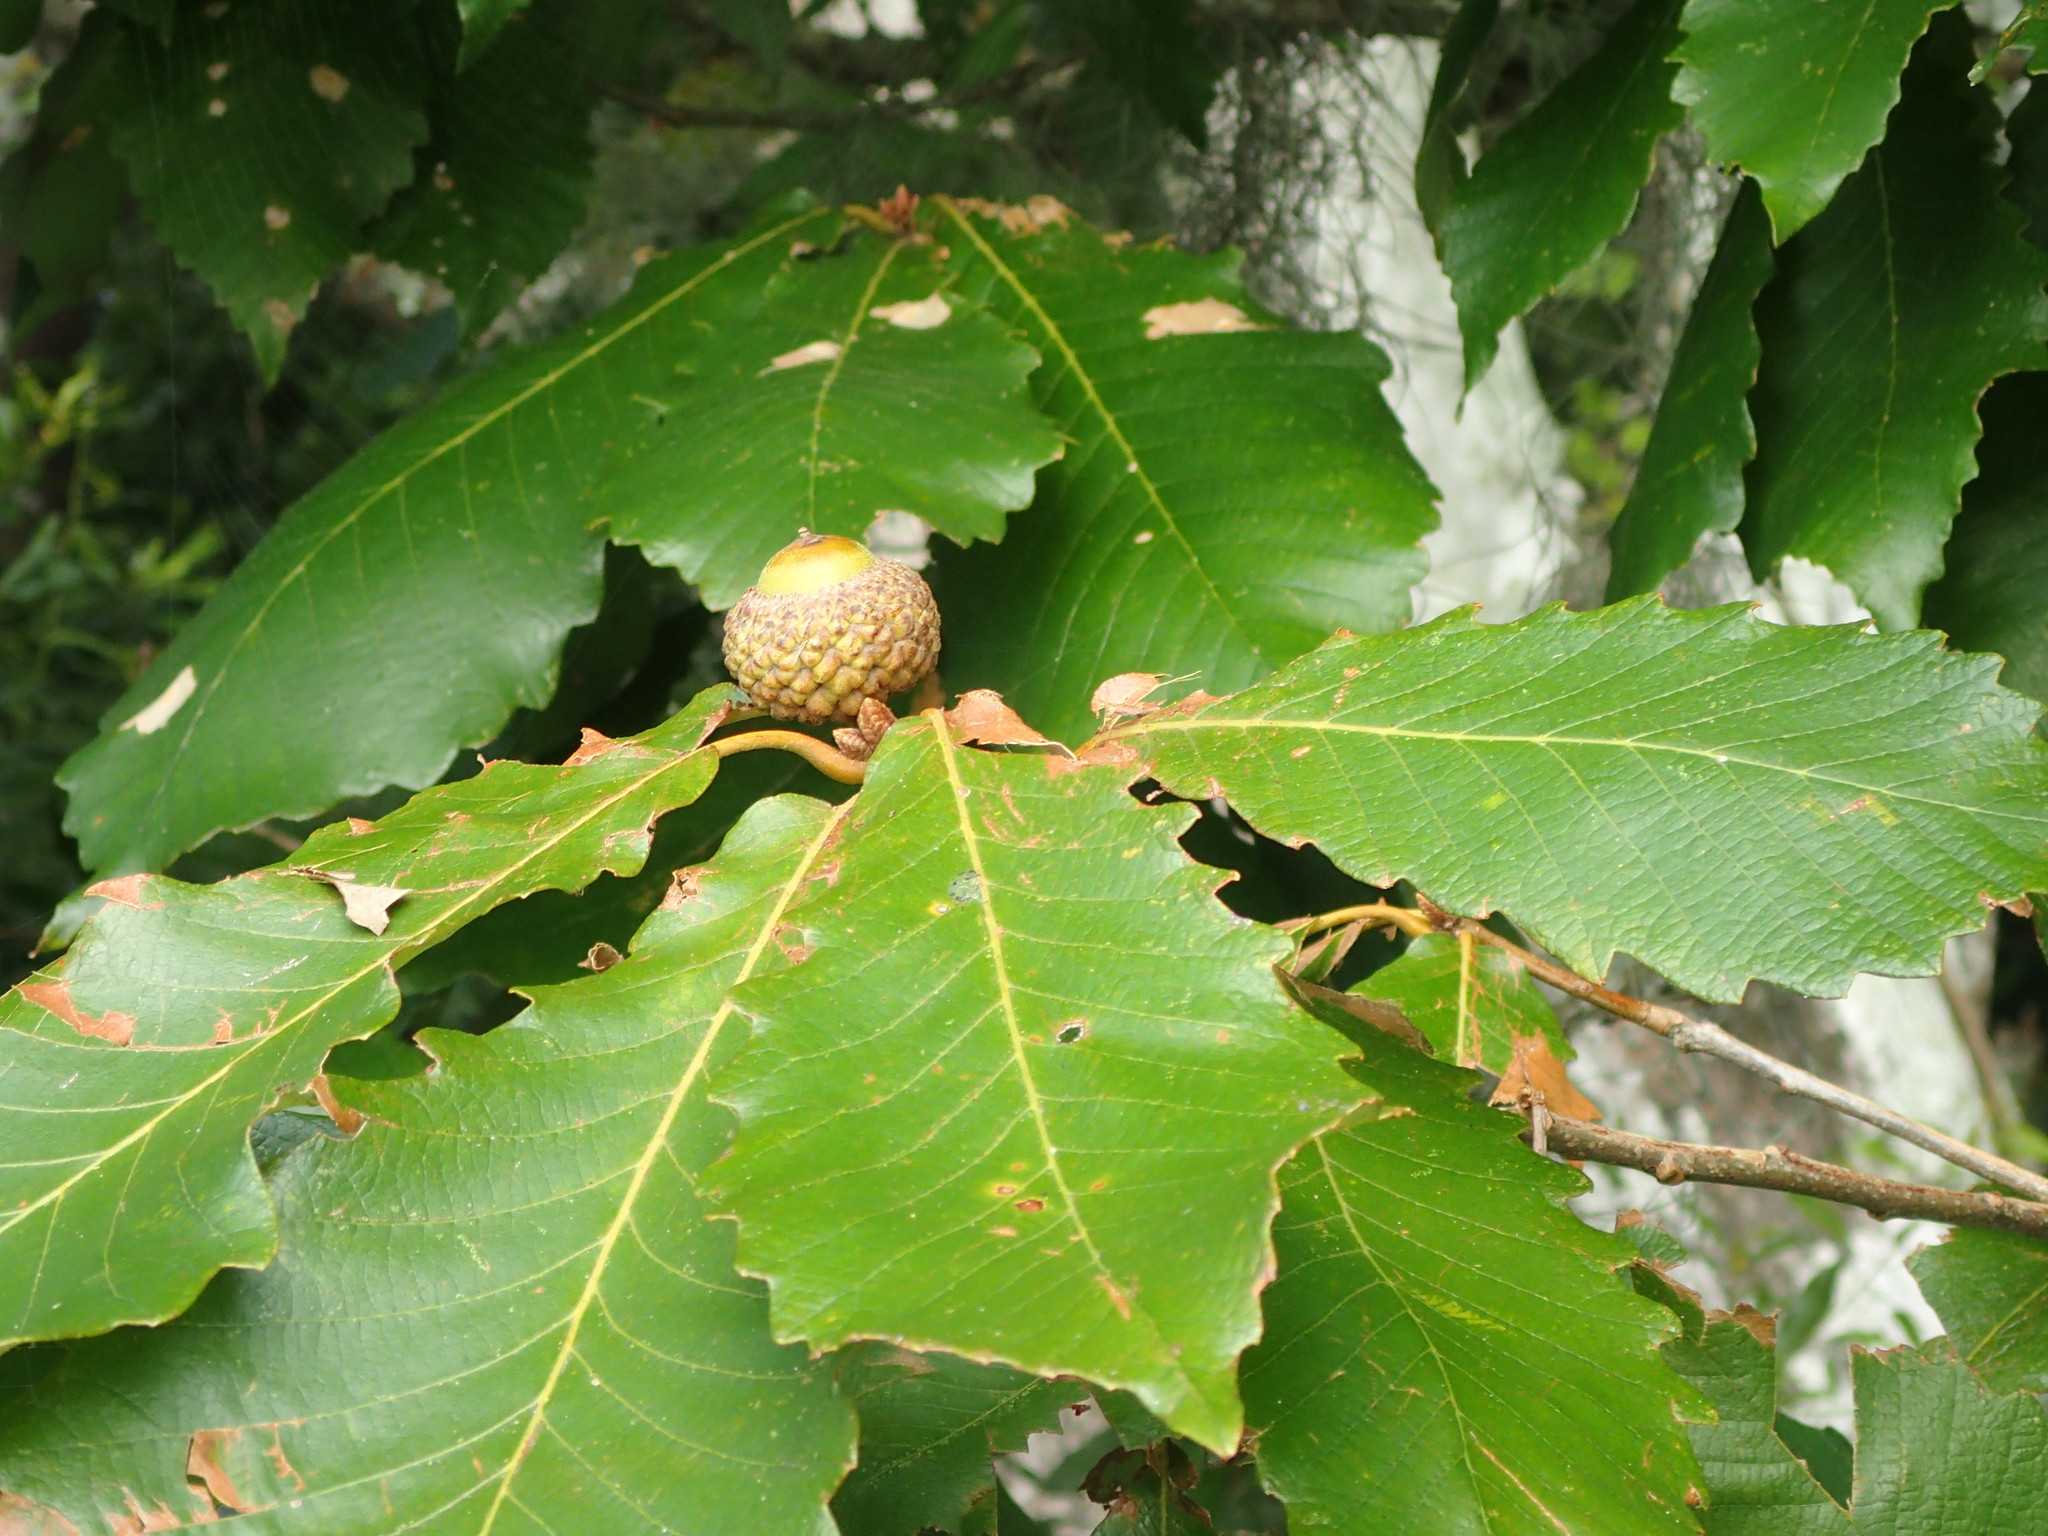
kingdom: Animalia
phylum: Arthropoda
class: Insecta
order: Lepidoptera
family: Tischeriidae
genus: Tischeria
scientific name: Tischeria quercitella
